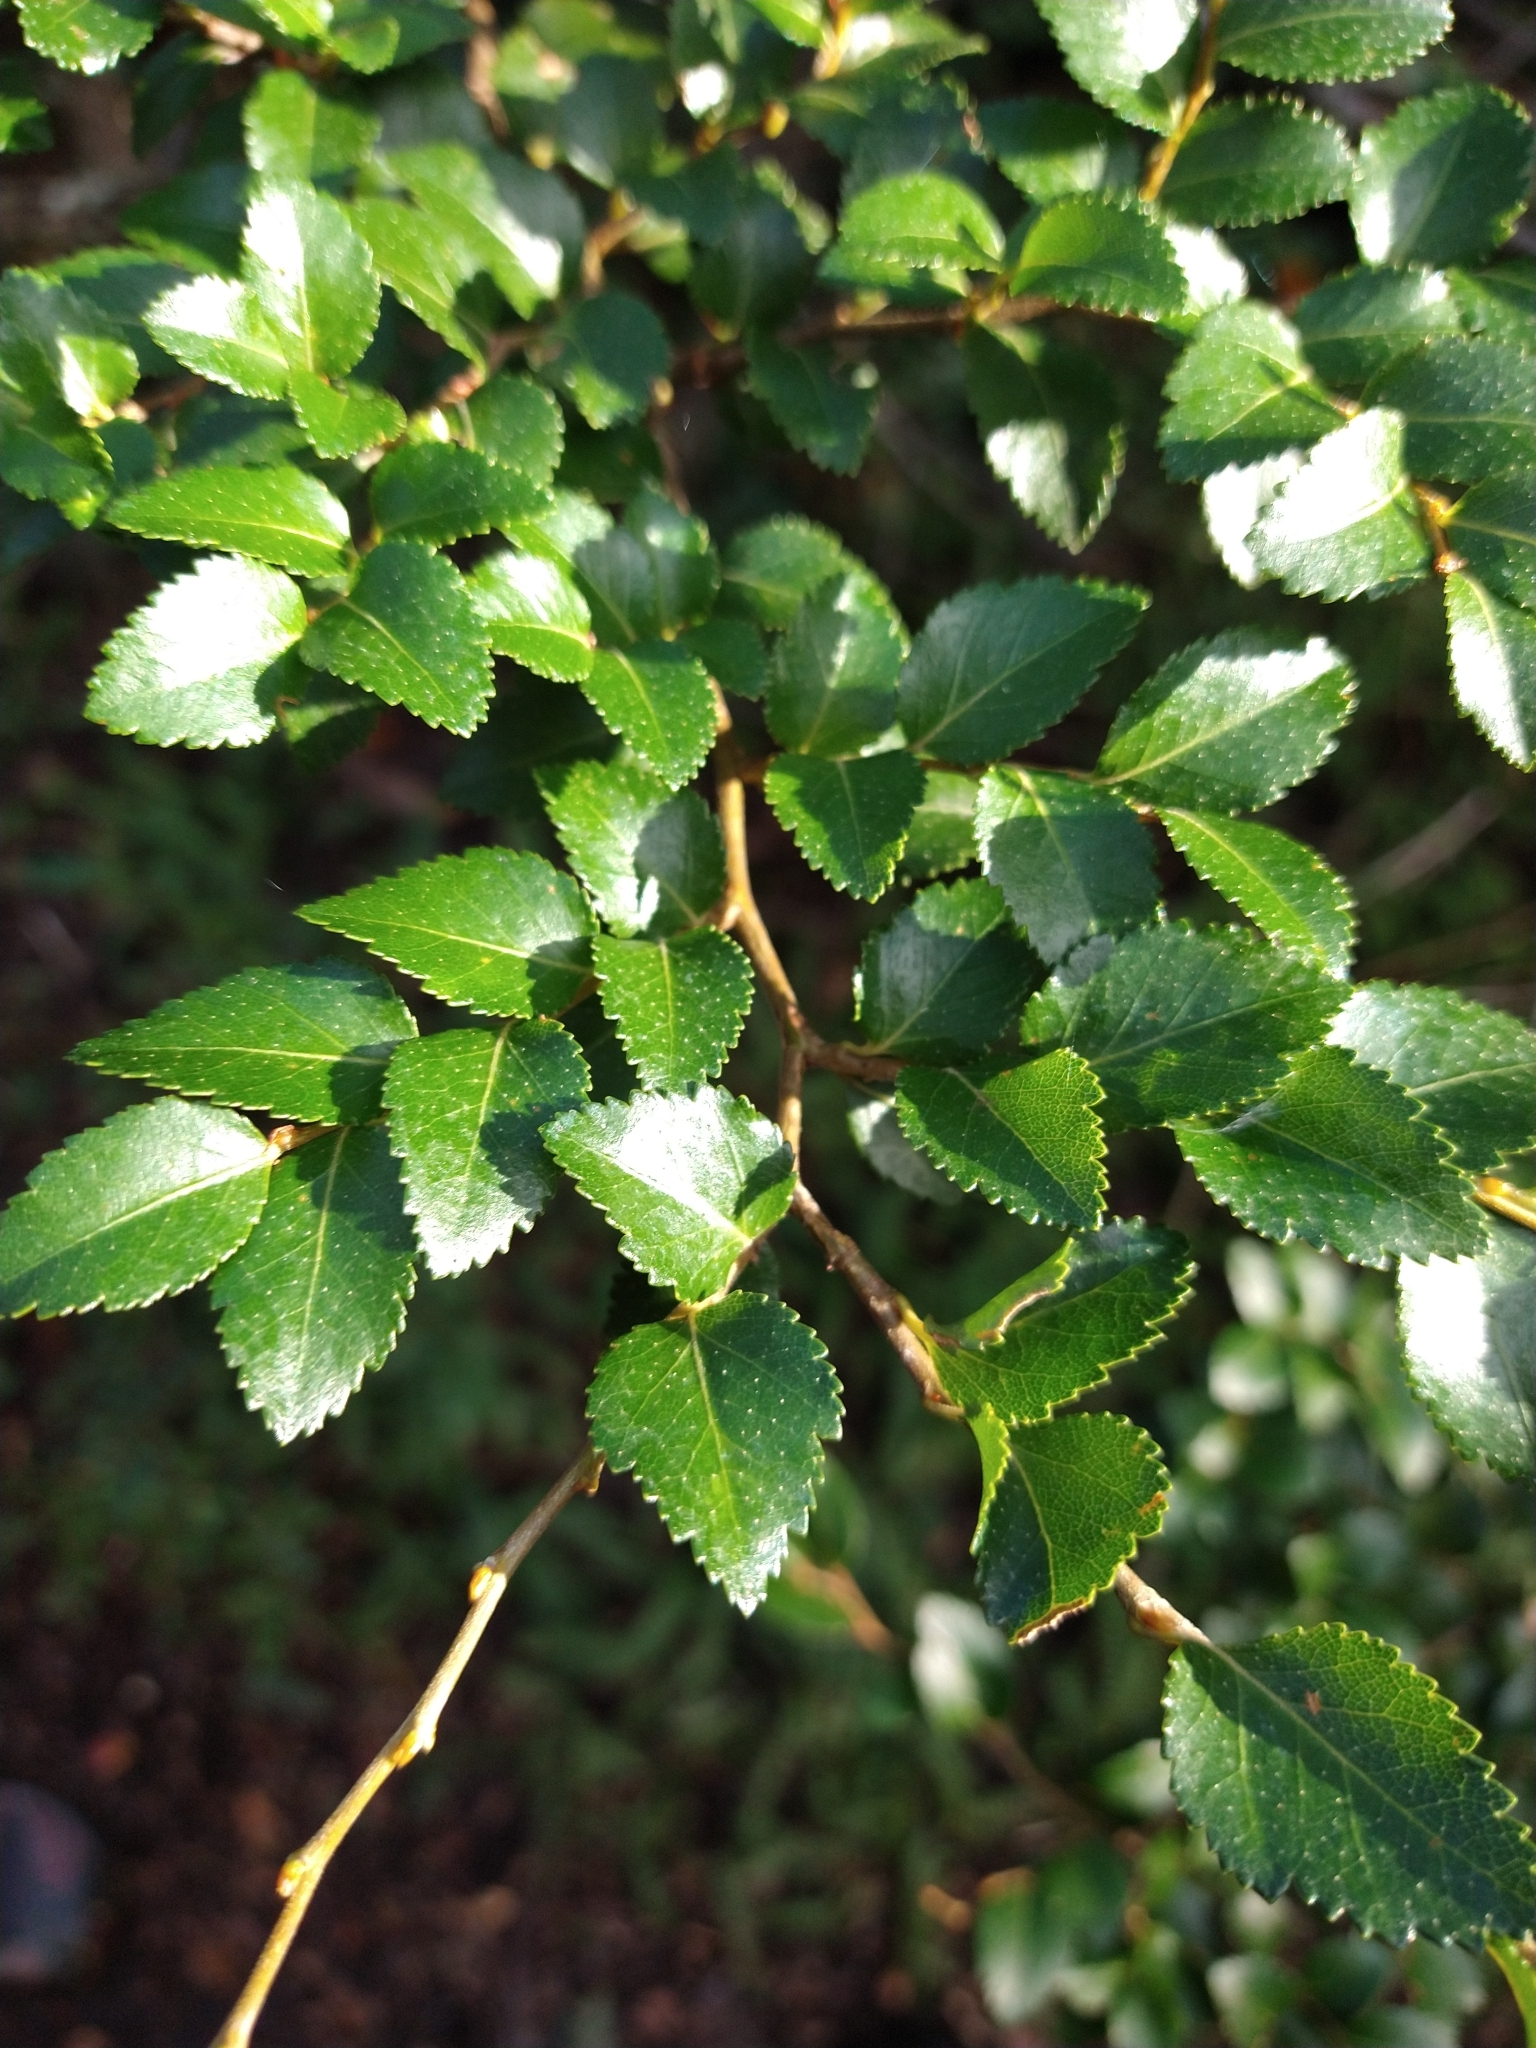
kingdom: Plantae
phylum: Tracheophyta
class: Magnoliopsida
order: Fagales
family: Nothofagaceae
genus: Nothofagus
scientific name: Nothofagus betuloides
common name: Magellan's beech
